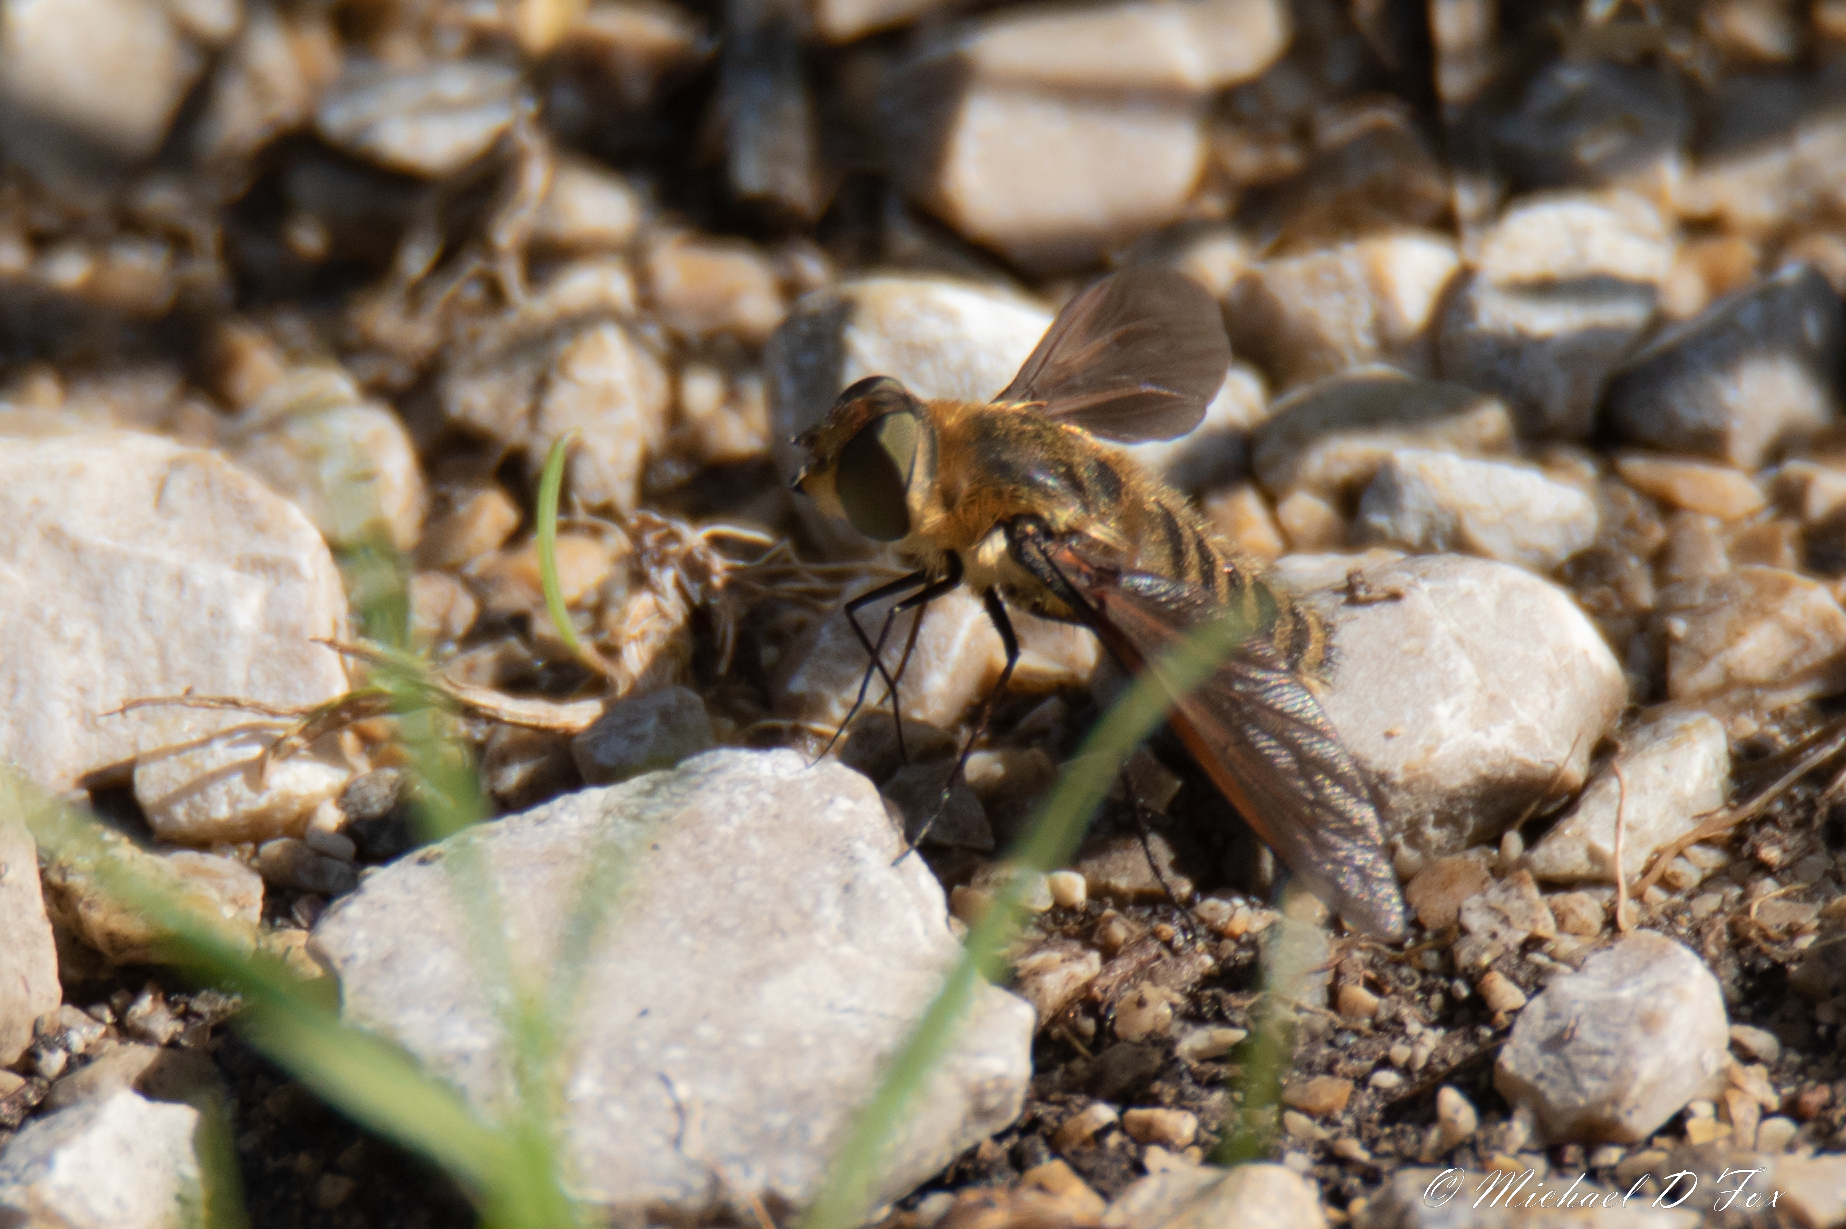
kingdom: Animalia
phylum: Arthropoda
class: Insecta
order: Diptera
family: Bombyliidae
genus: Poecilanthrax
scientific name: Poecilanthrax lucifer
